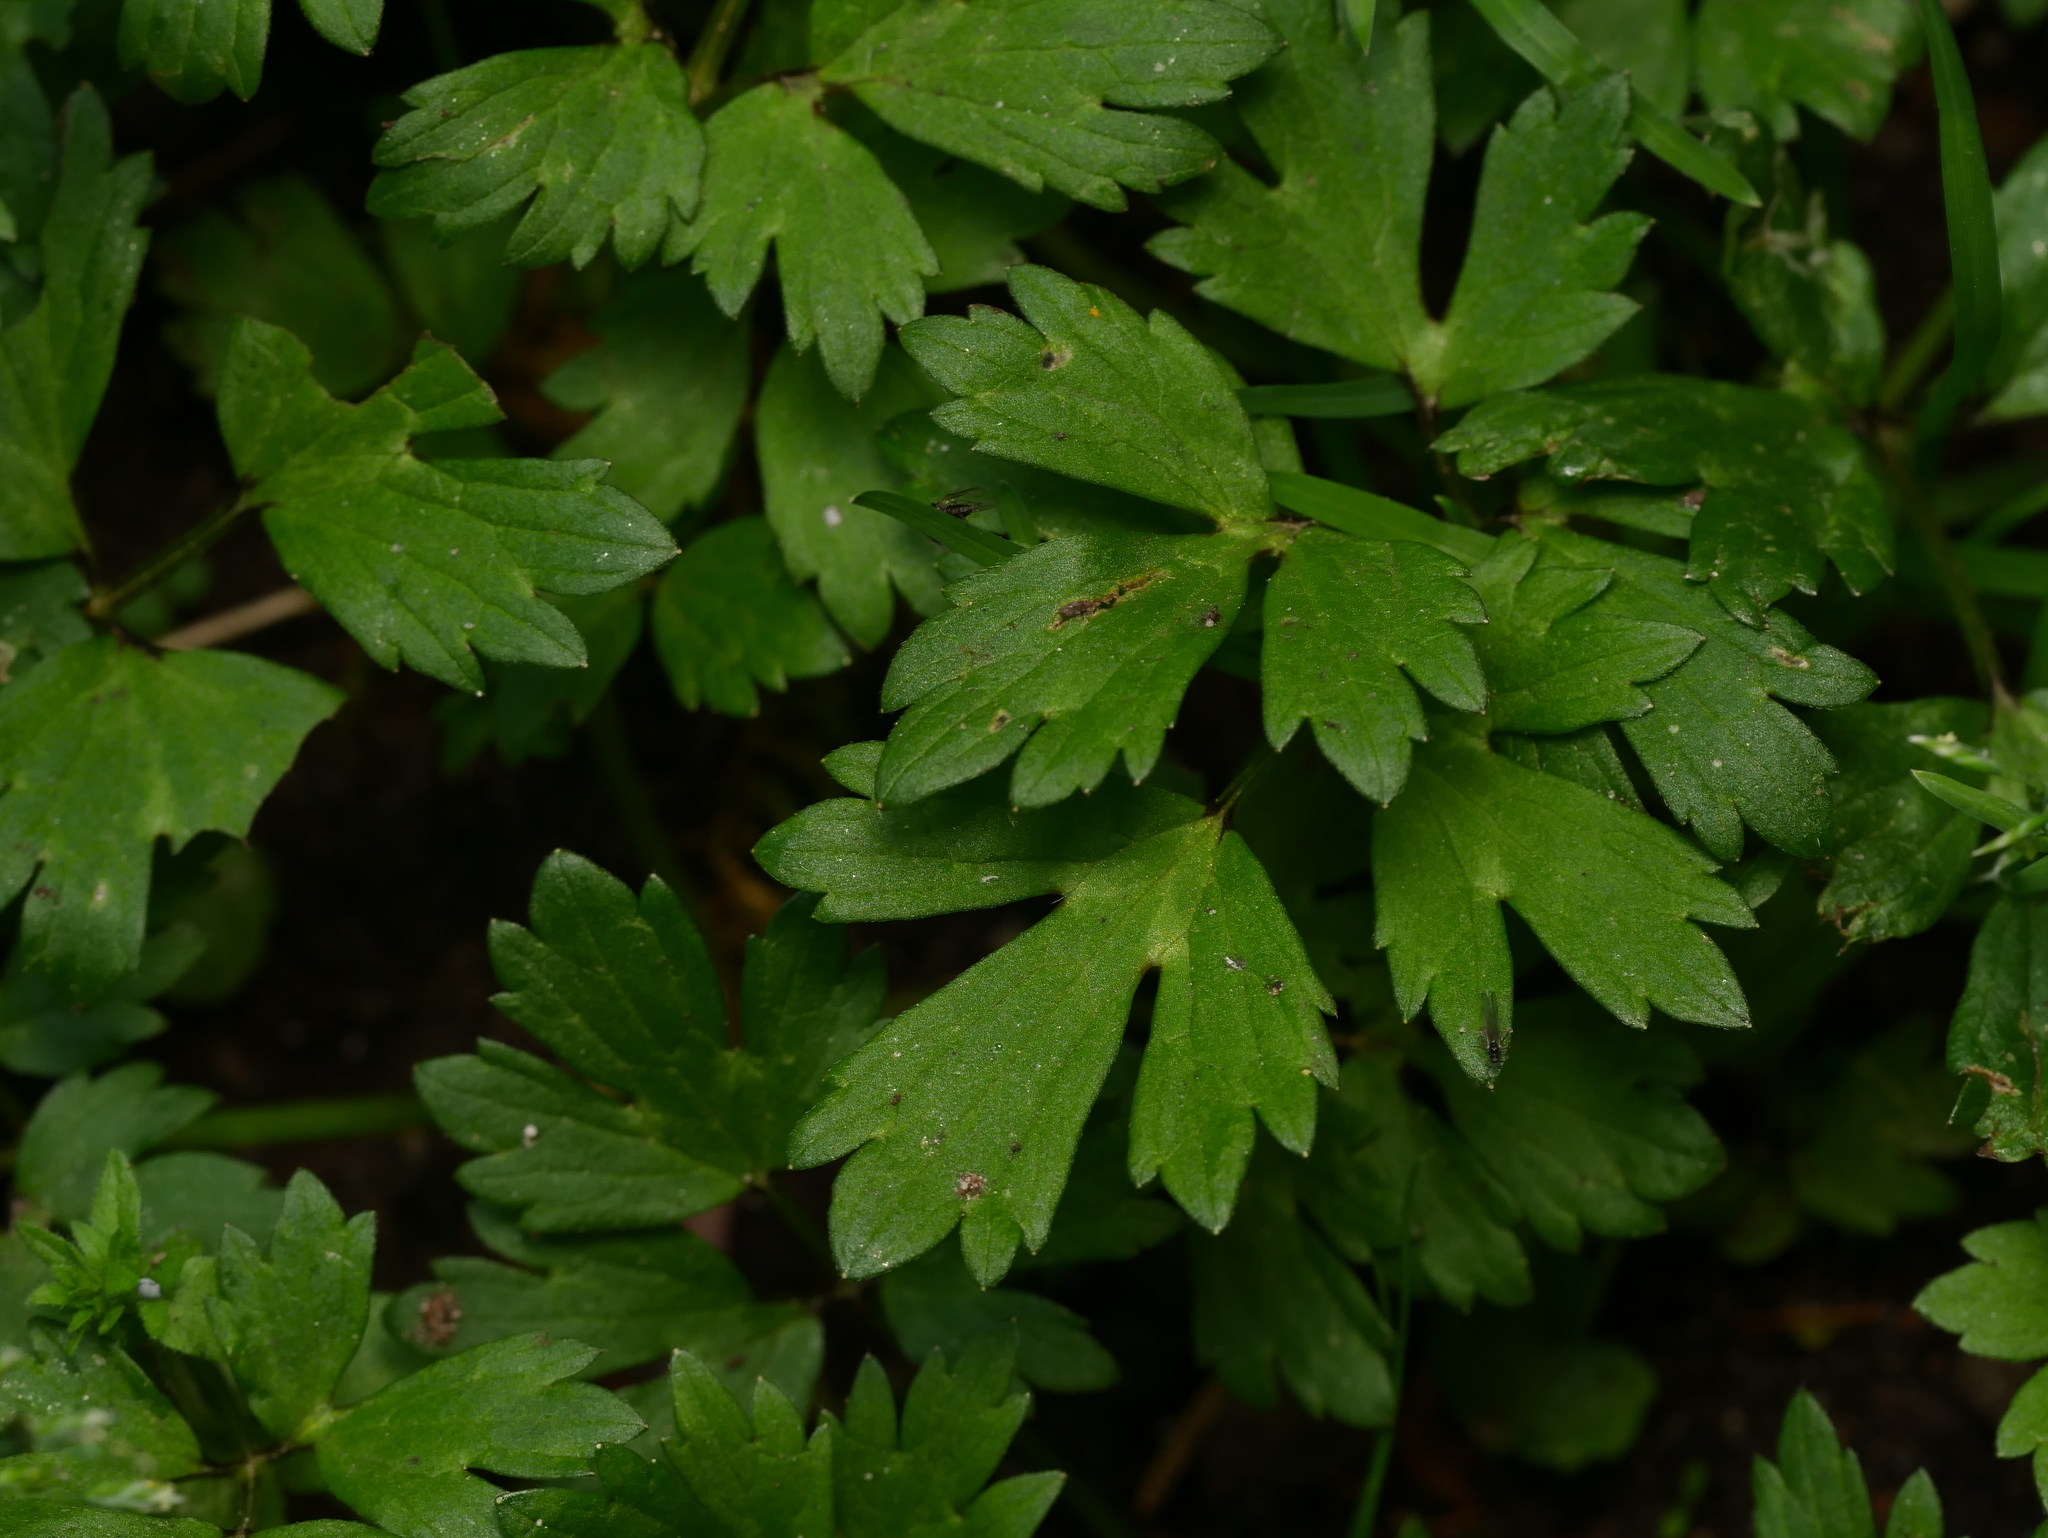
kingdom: Plantae
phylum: Tracheophyta
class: Magnoliopsida
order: Ranunculales
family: Ranunculaceae
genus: Ranunculus
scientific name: Ranunculus repens
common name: Creeping buttercup
